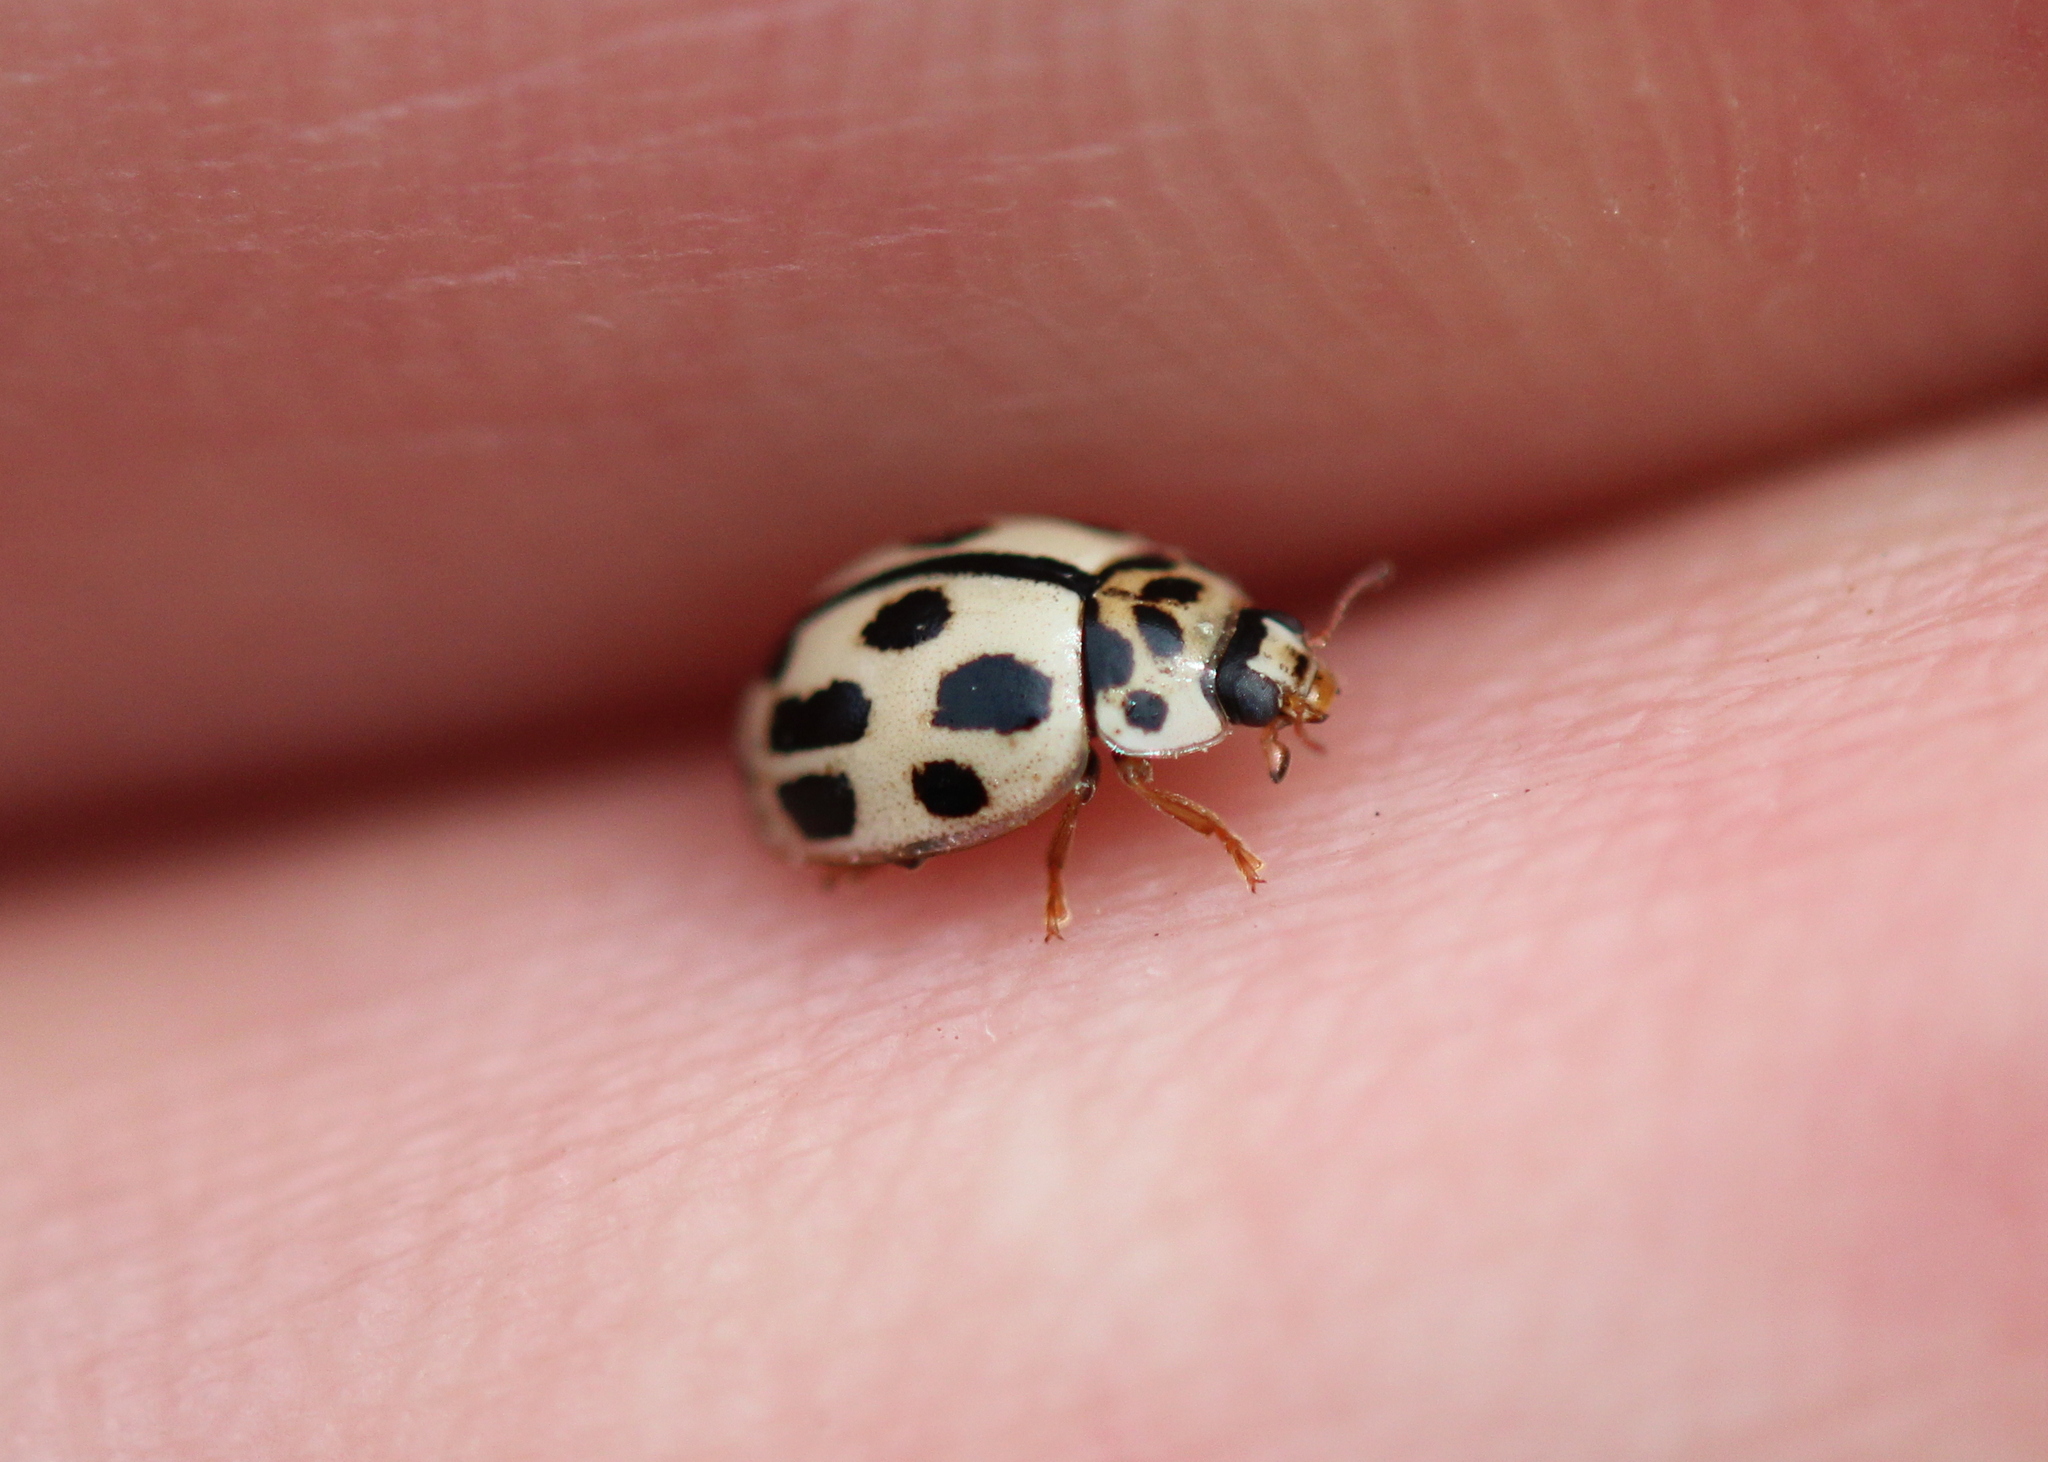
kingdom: Animalia
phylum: Arthropoda
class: Insecta
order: Coleoptera
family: Coccinellidae
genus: Propylaea
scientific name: Propylaea quatuordecimpunctata
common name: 14-spotted ladybird beetle
